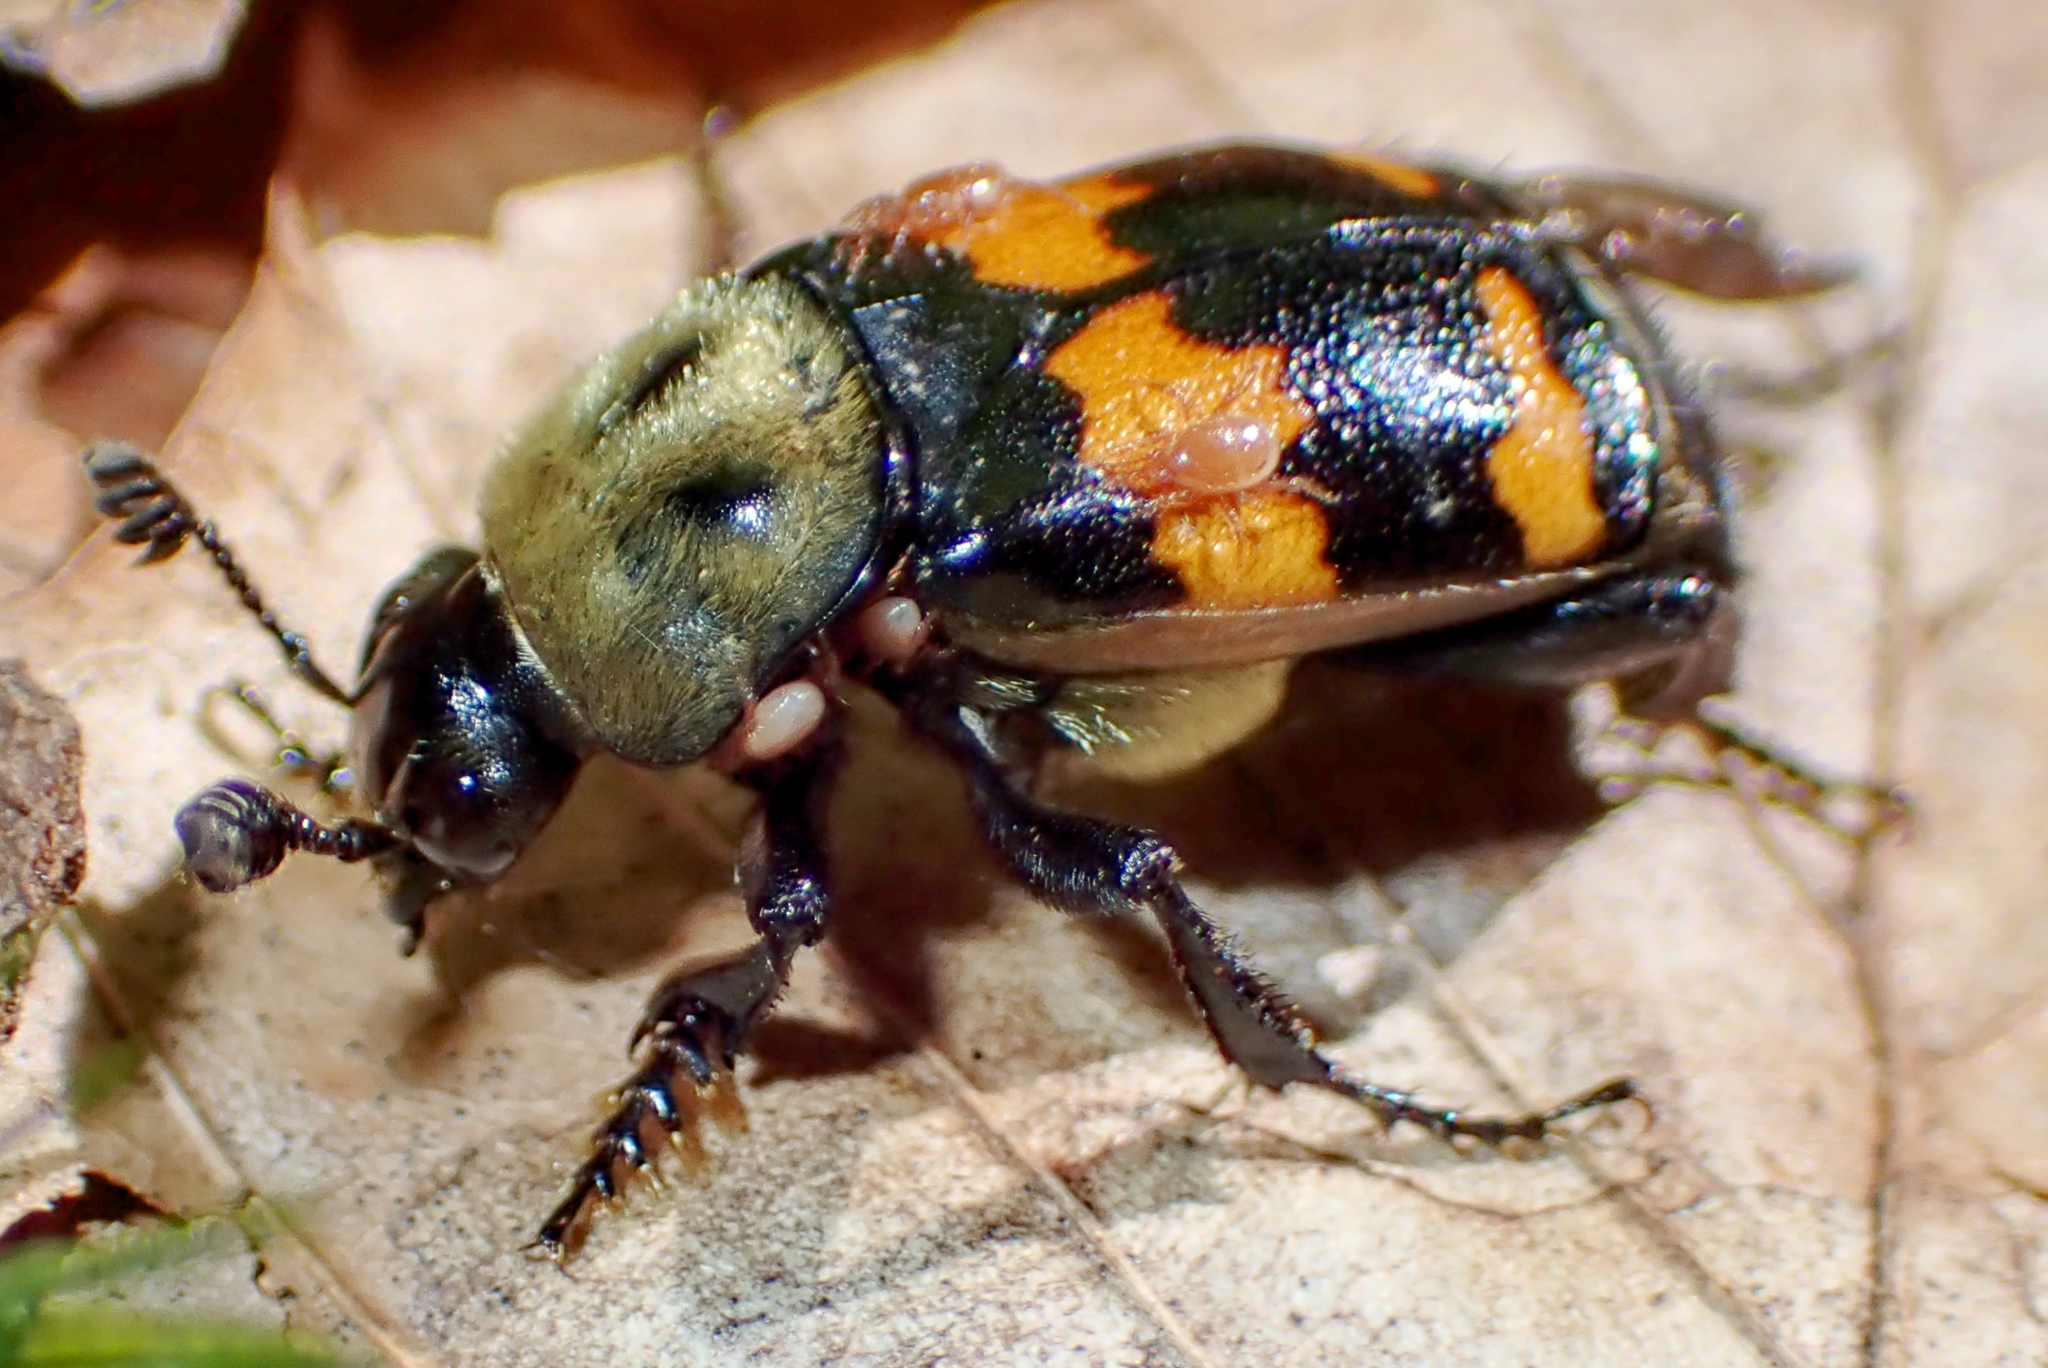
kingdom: Animalia
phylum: Arthropoda
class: Insecta
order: Coleoptera
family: Staphylinidae
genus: Nicrophorus
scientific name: Nicrophorus tomentosus
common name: Tomentose burying beetle
